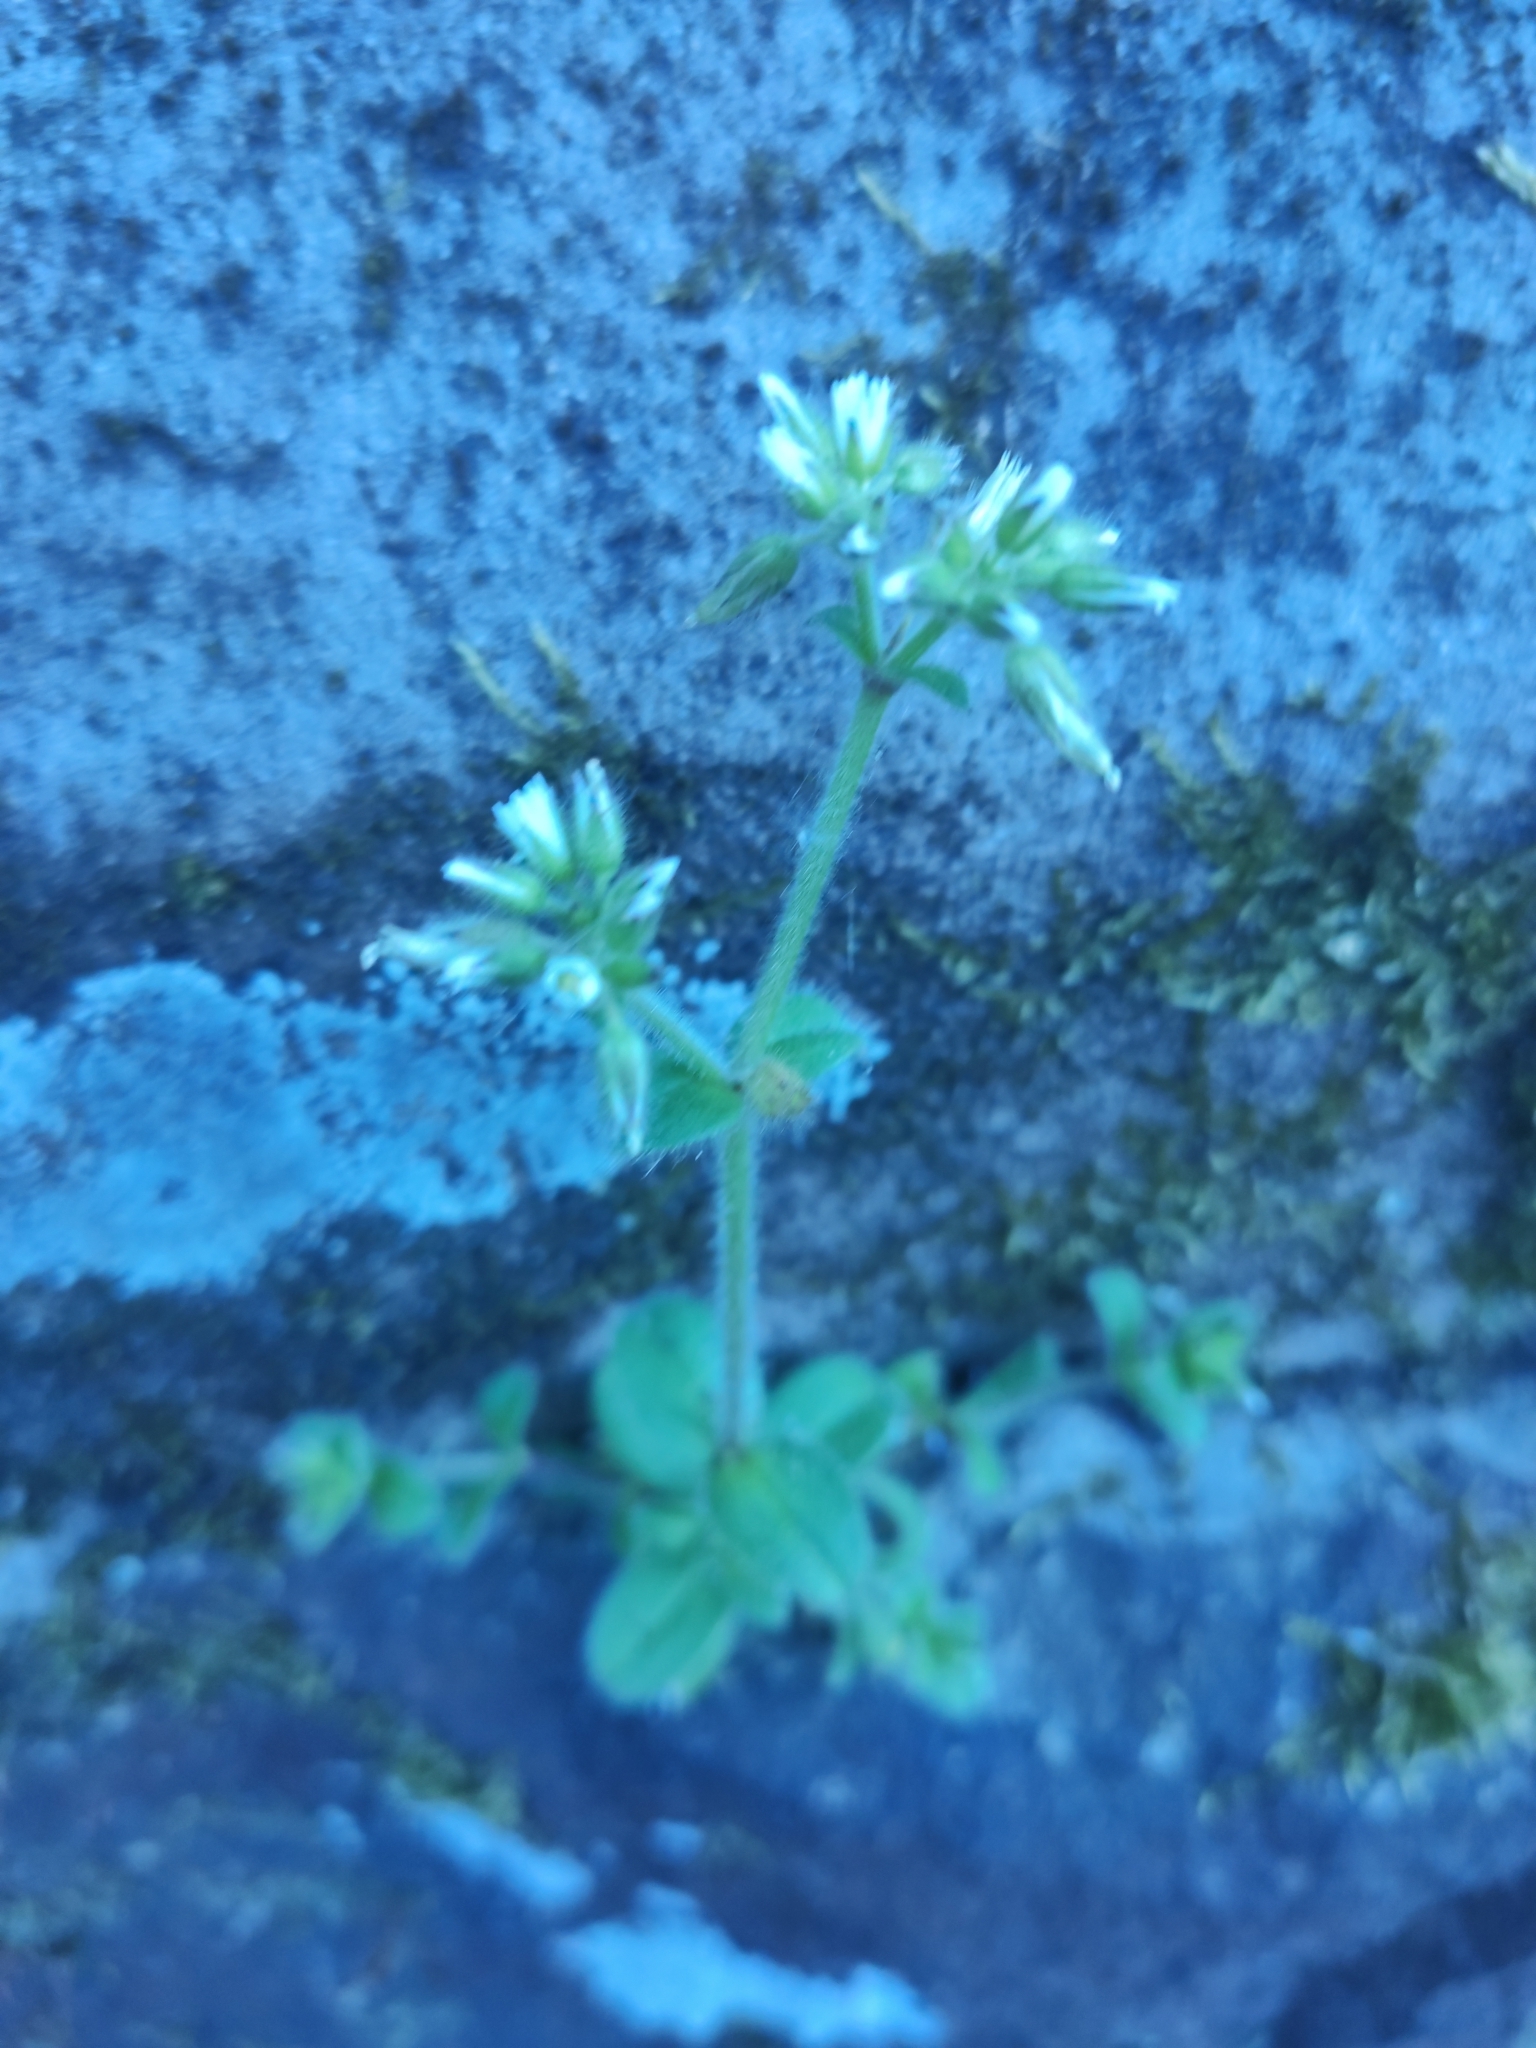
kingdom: Plantae
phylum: Tracheophyta
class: Magnoliopsida
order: Caryophyllales
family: Caryophyllaceae
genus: Cerastium
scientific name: Cerastium fontanum
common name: Common mouse-ear
